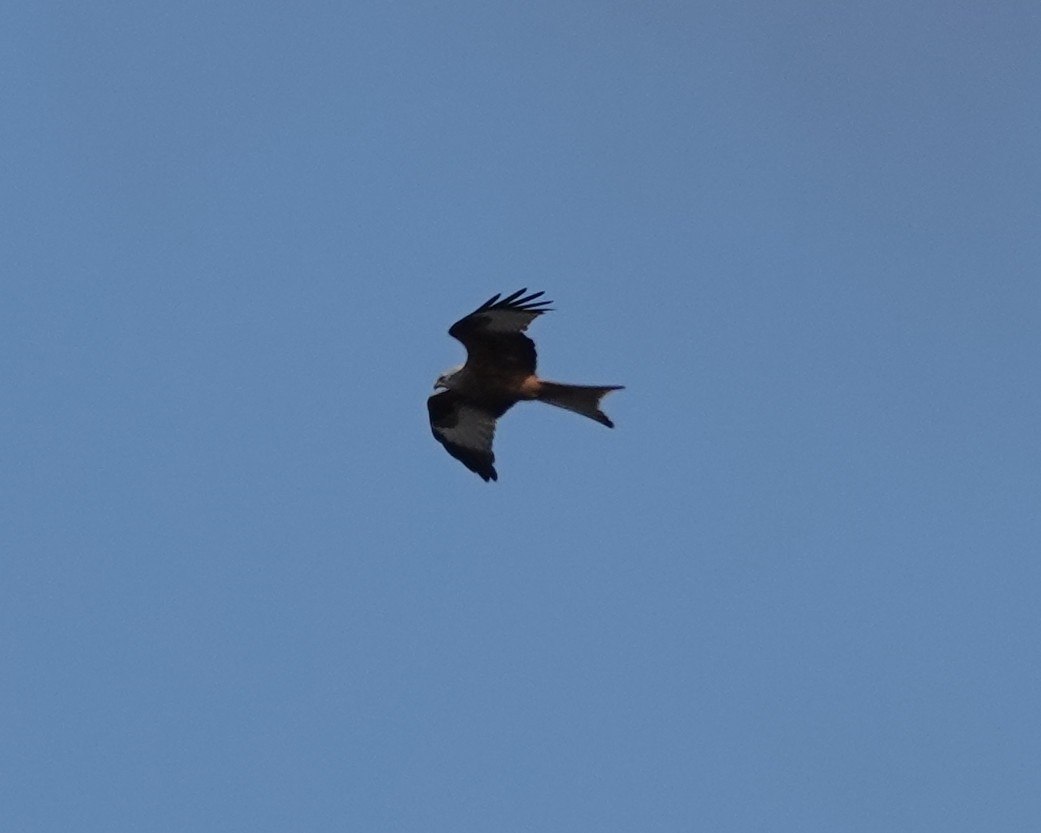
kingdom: Animalia
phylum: Chordata
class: Aves
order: Accipitriformes
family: Accipitridae
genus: Milvus
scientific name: Milvus milvus
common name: Red kite
